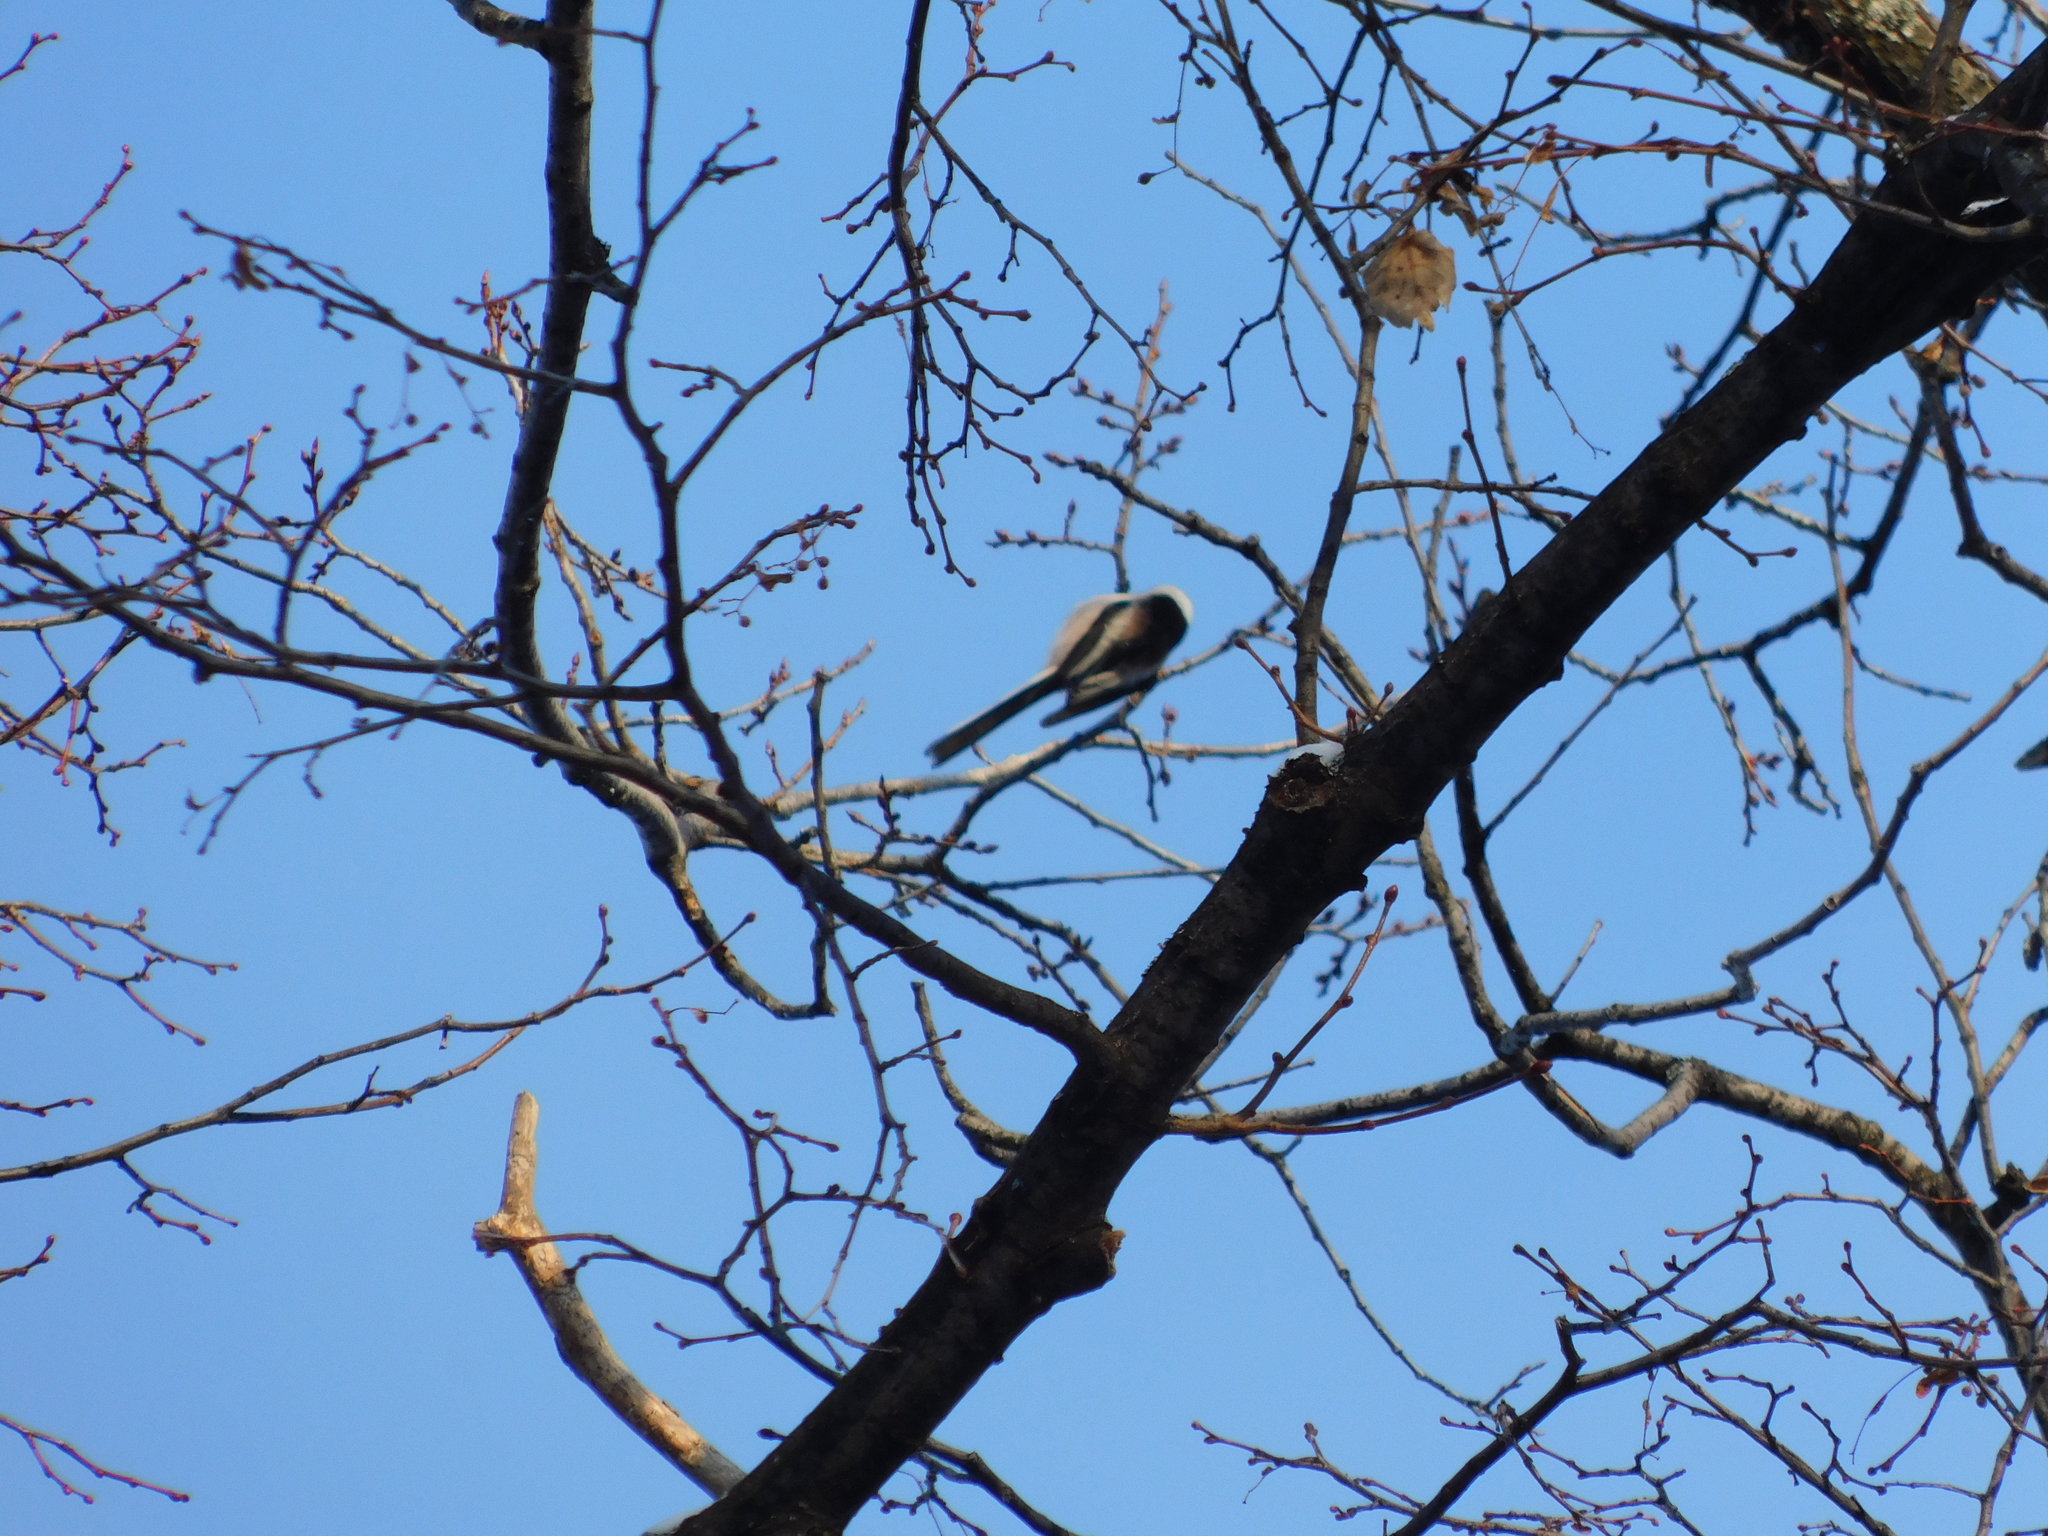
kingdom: Animalia
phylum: Chordata
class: Aves
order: Passeriformes
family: Aegithalidae
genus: Aegithalos
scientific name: Aegithalos caudatus
